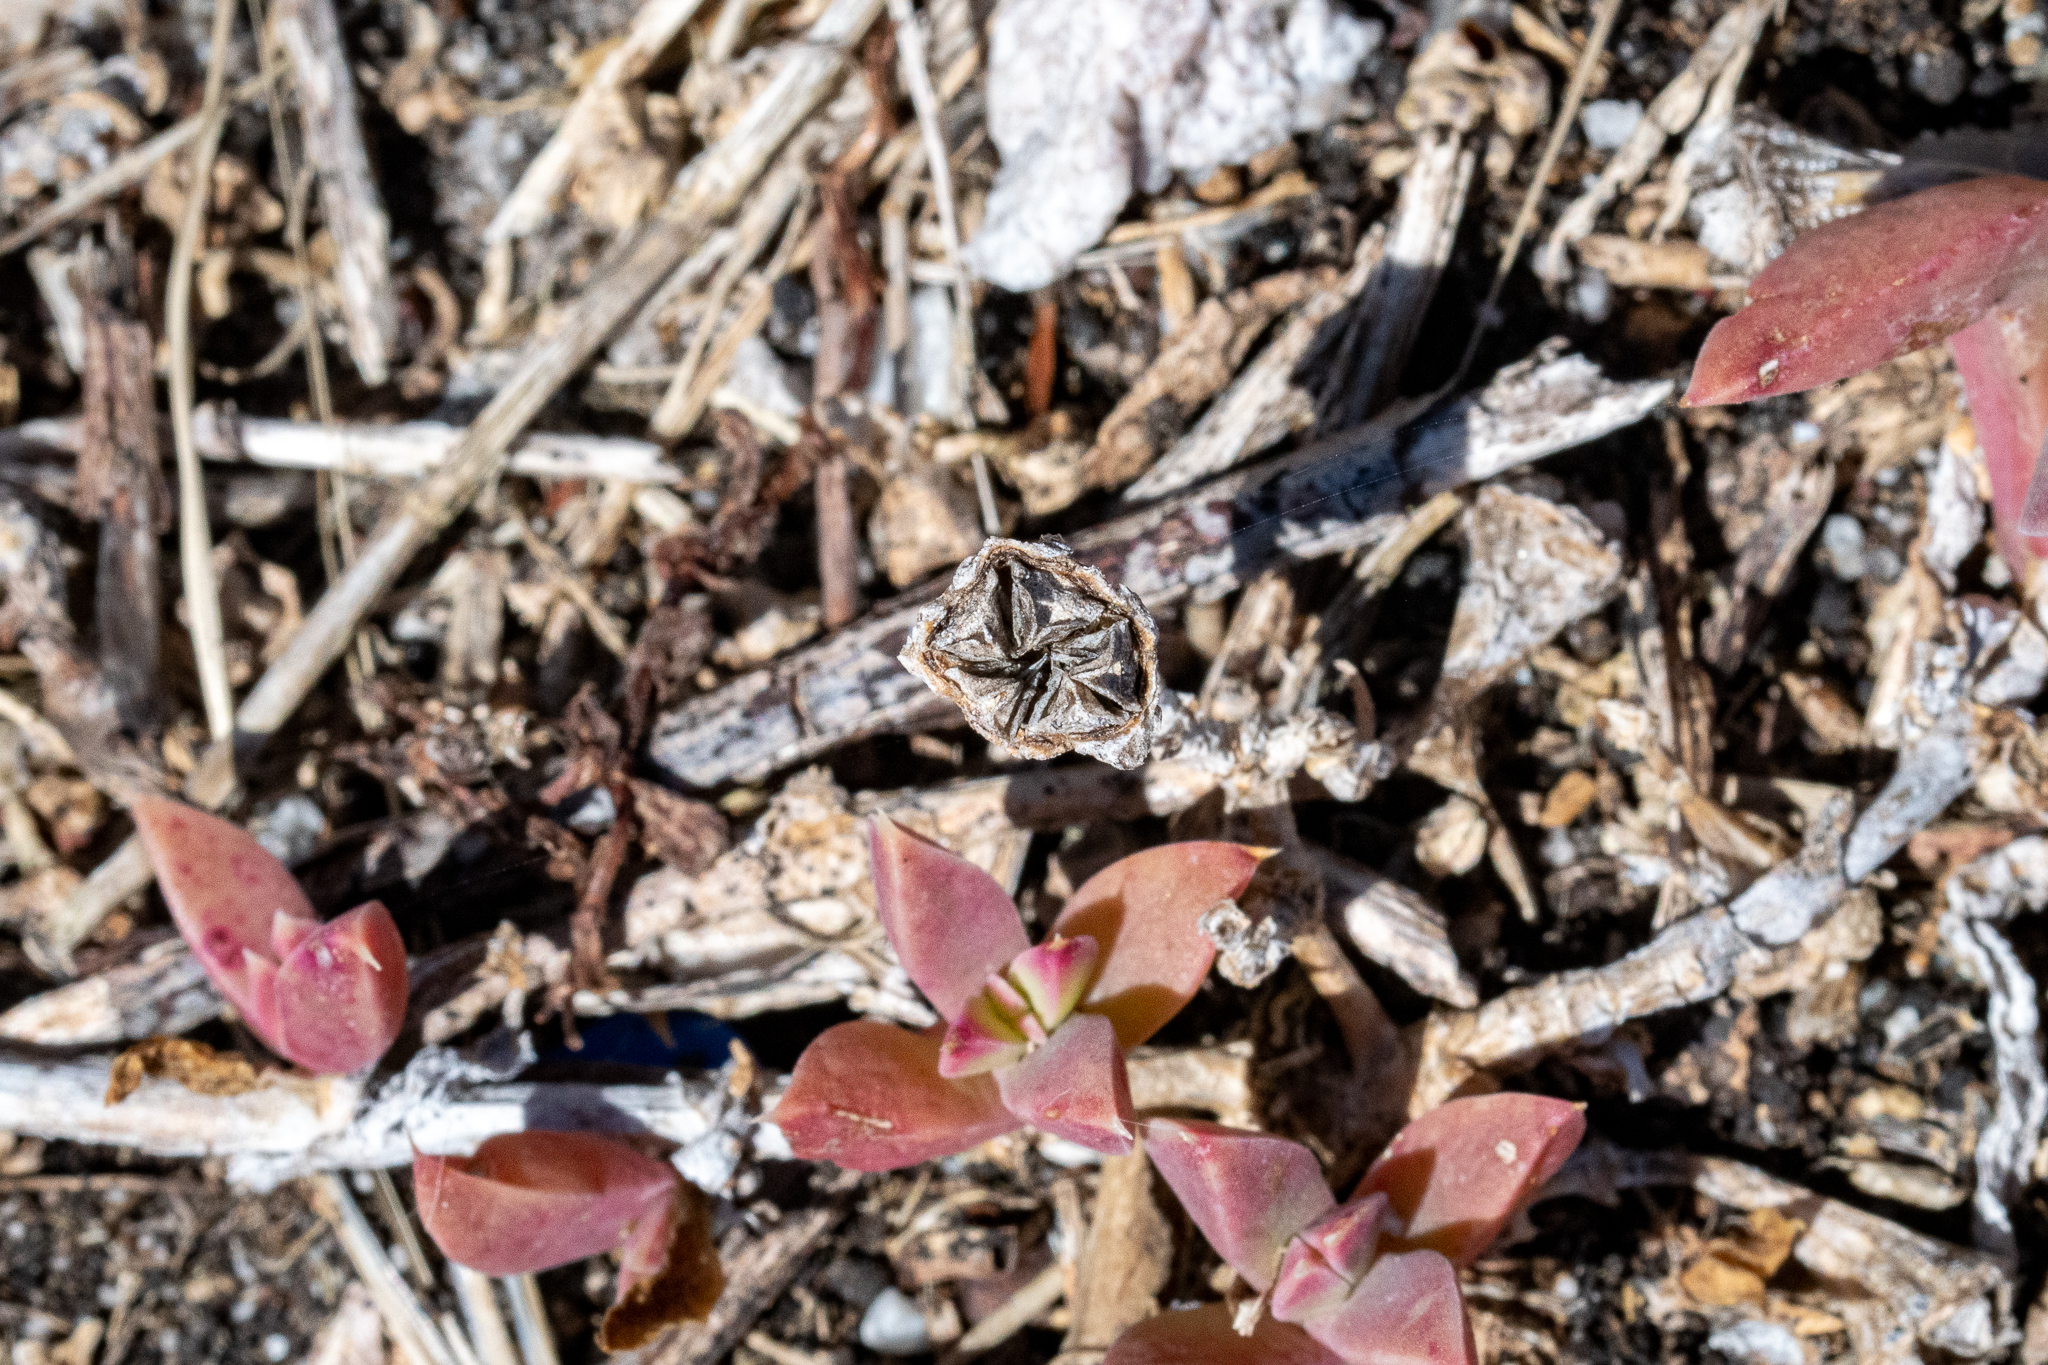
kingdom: Plantae
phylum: Tracheophyta
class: Magnoliopsida
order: Caryophyllales
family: Aizoaceae
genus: Delosperma
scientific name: Delosperma guthriei
